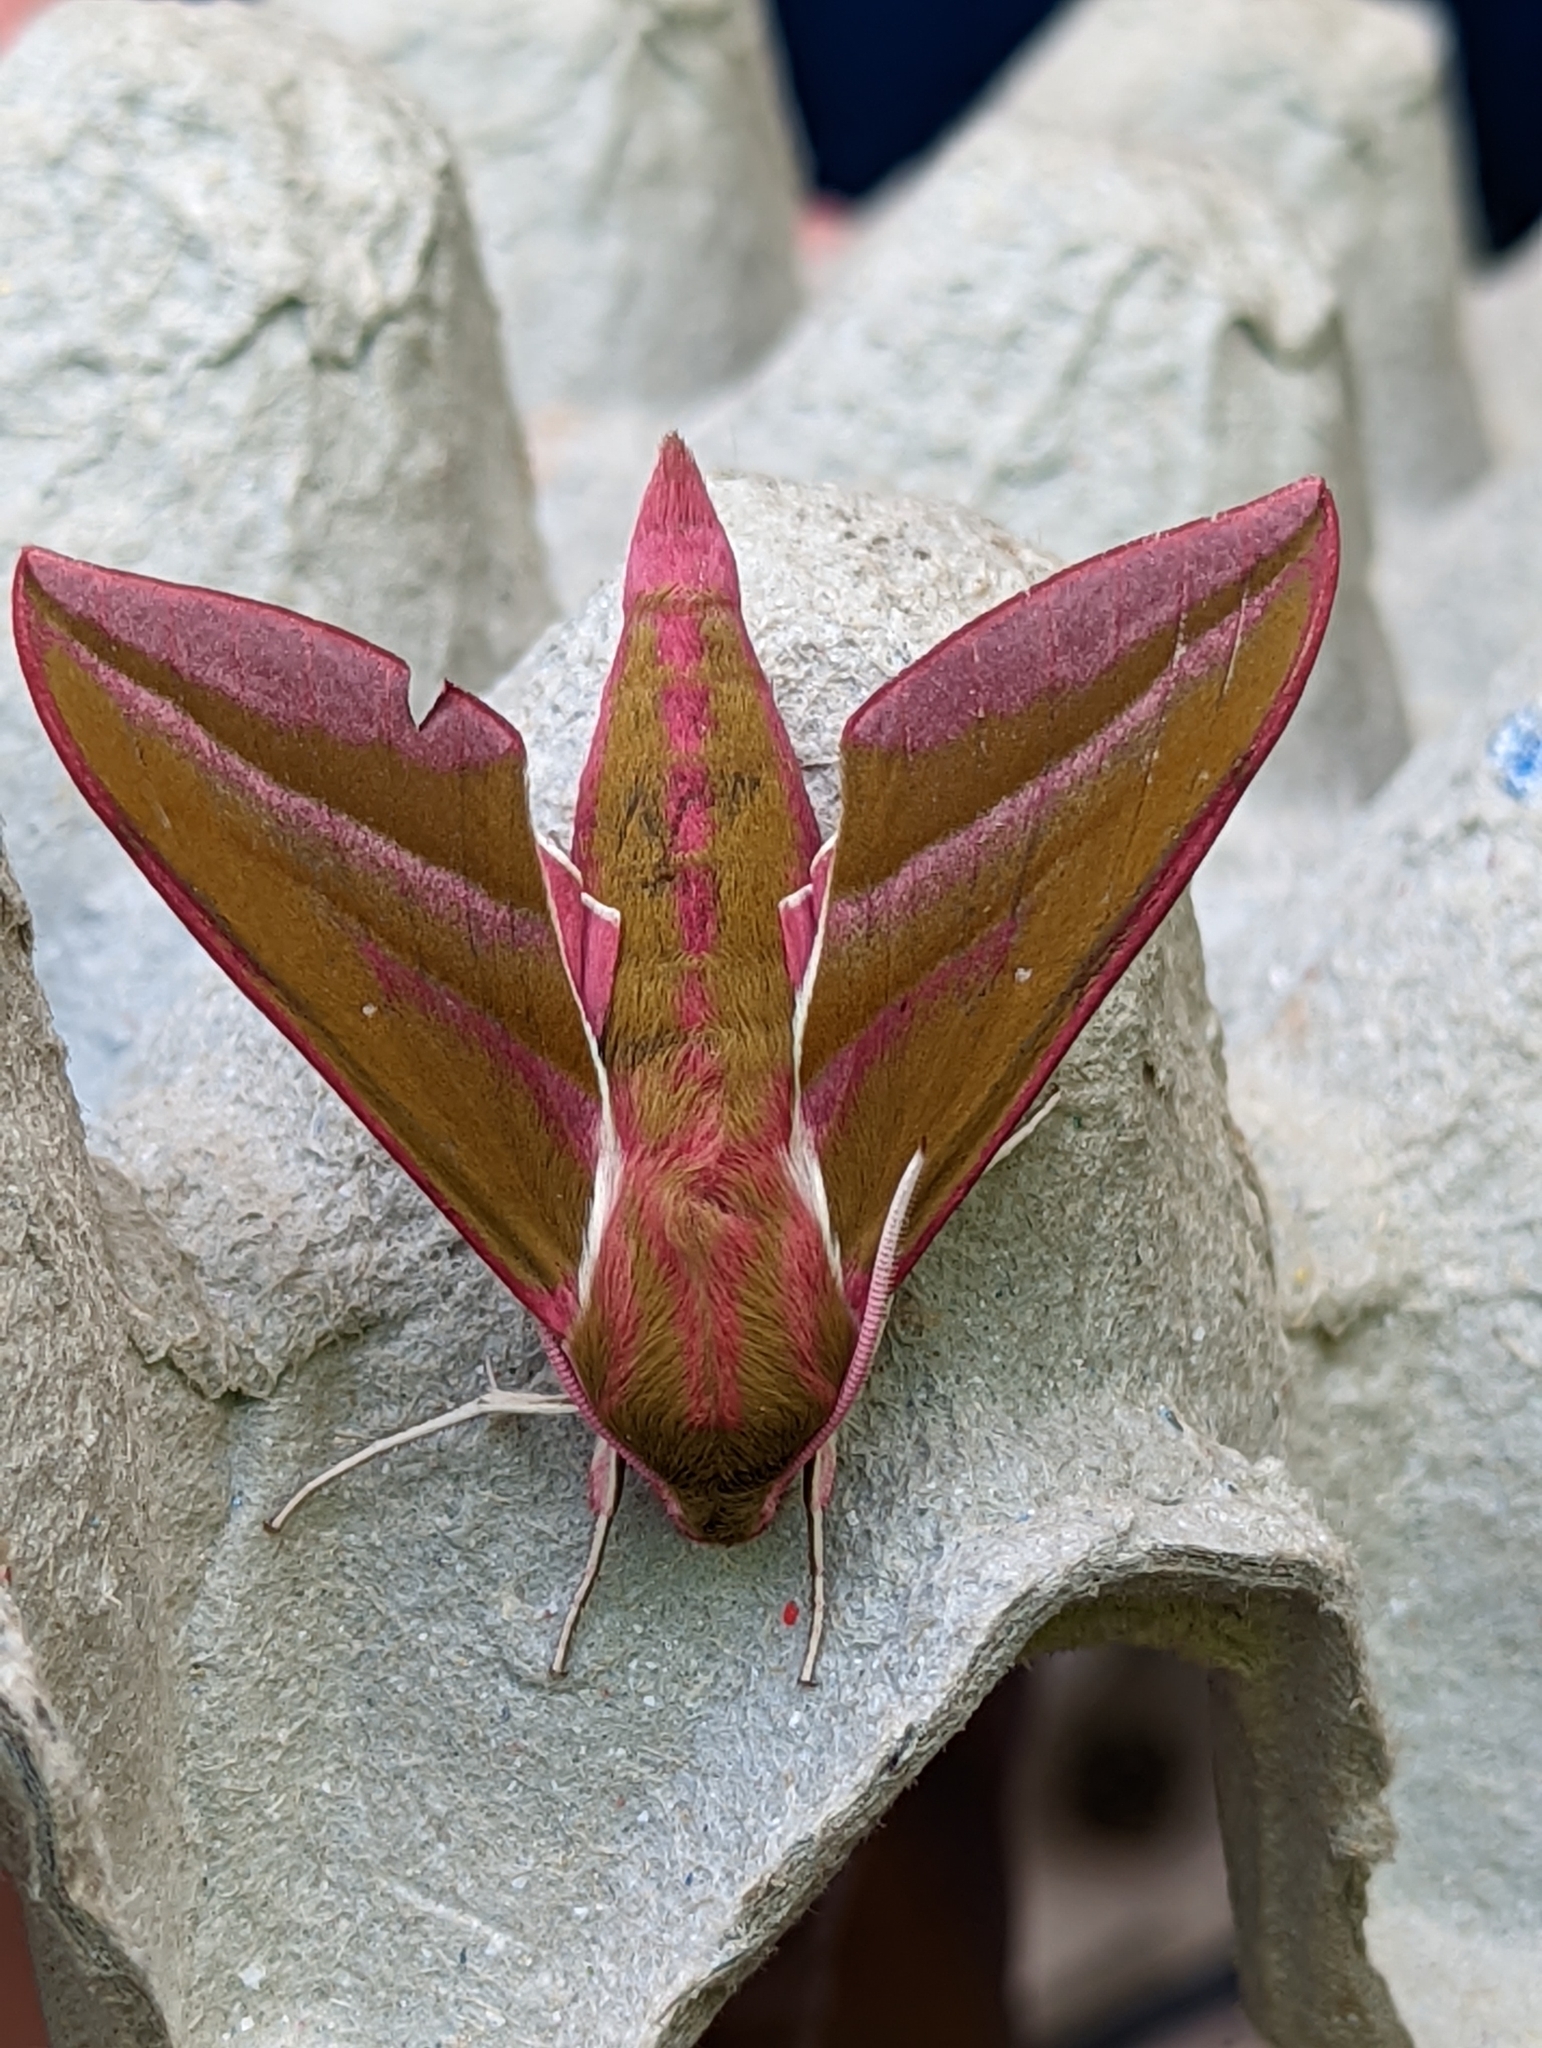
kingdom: Animalia
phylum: Arthropoda
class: Insecta
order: Lepidoptera
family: Sphingidae
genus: Deilephila
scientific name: Deilephila elpenor
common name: Elephant hawk-moth
